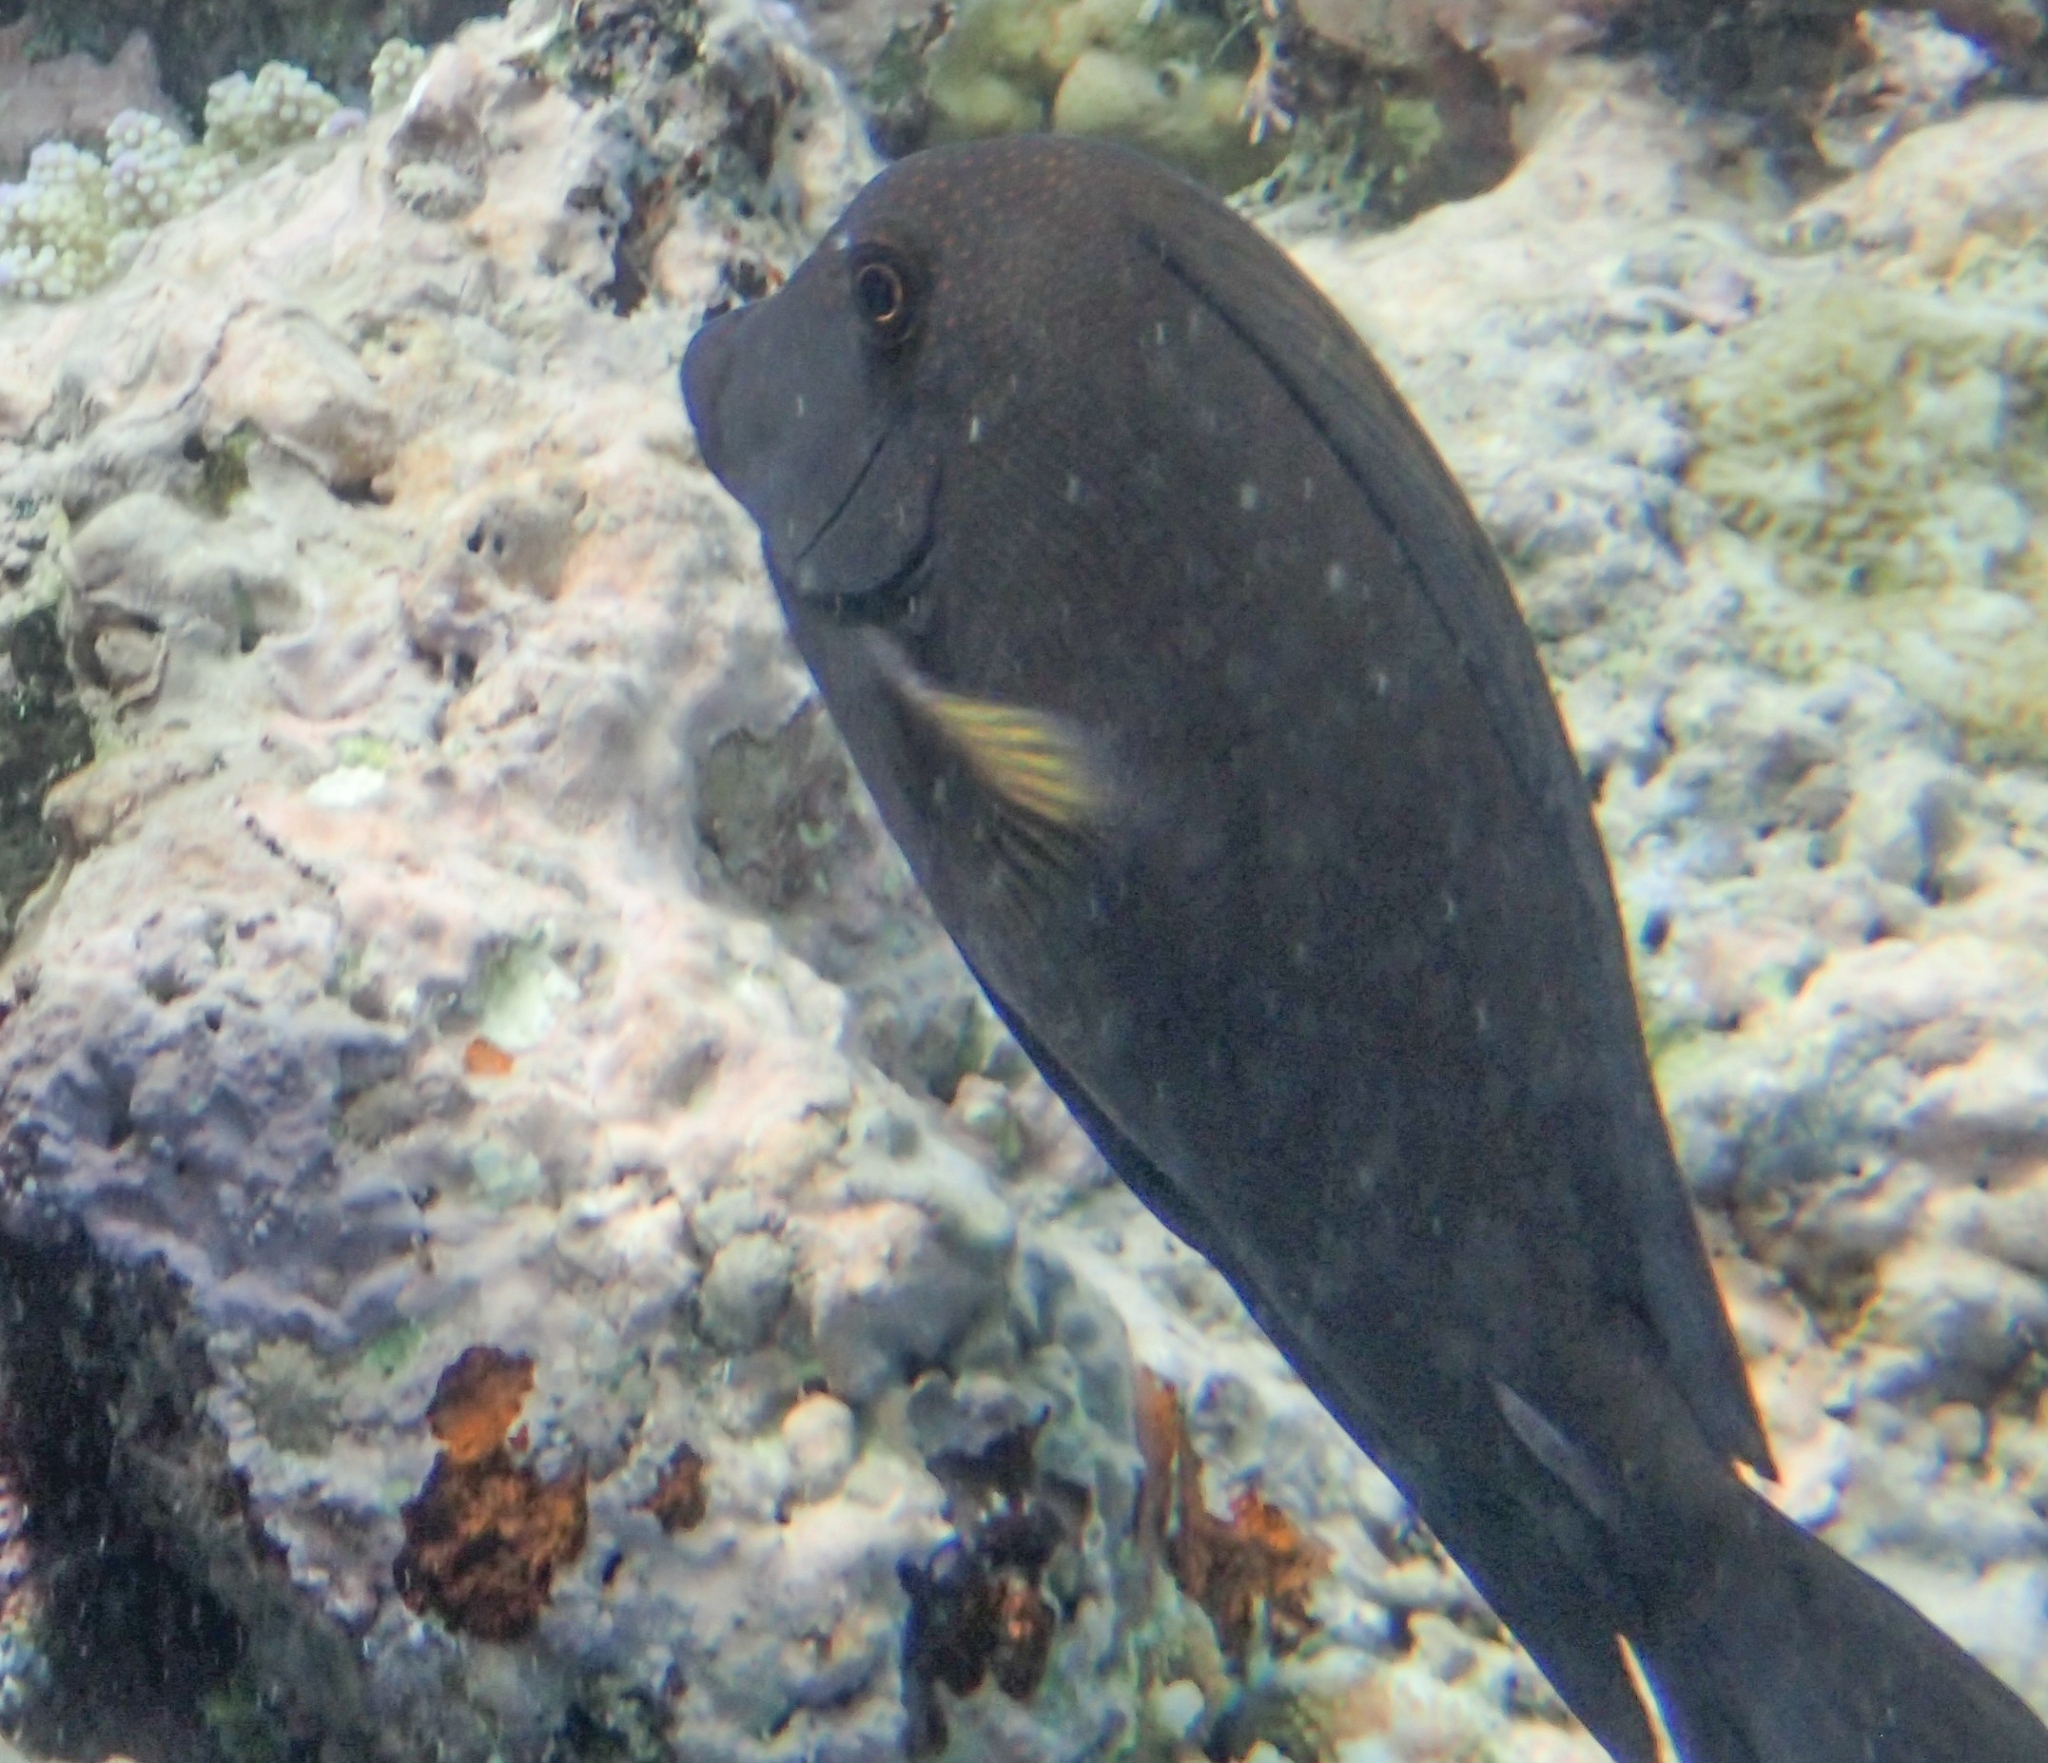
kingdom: Animalia
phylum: Chordata
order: Perciformes
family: Acanthuridae
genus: Ctenochaetus
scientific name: Ctenochaetus striatus
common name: Bristle-toothed surgeonfish
